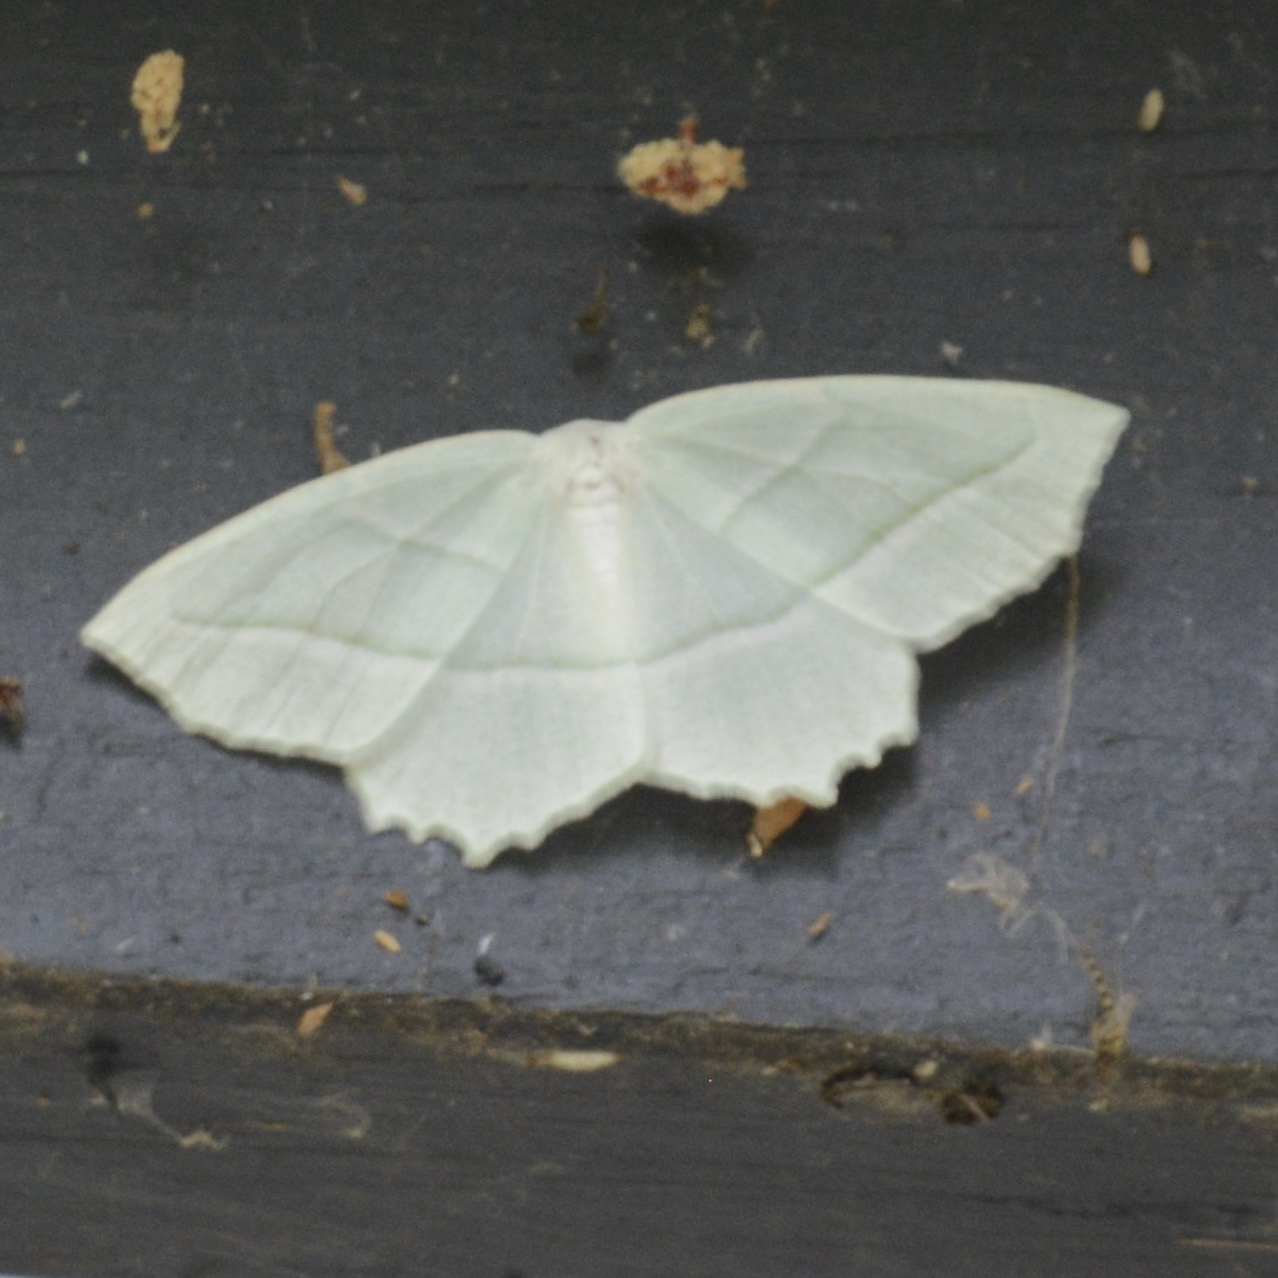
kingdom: Animalia
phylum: Arthropoda
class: Insecta
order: Lepidoptera
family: Geometridae
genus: Campaea
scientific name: Campaea perlata
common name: Fringed looper
